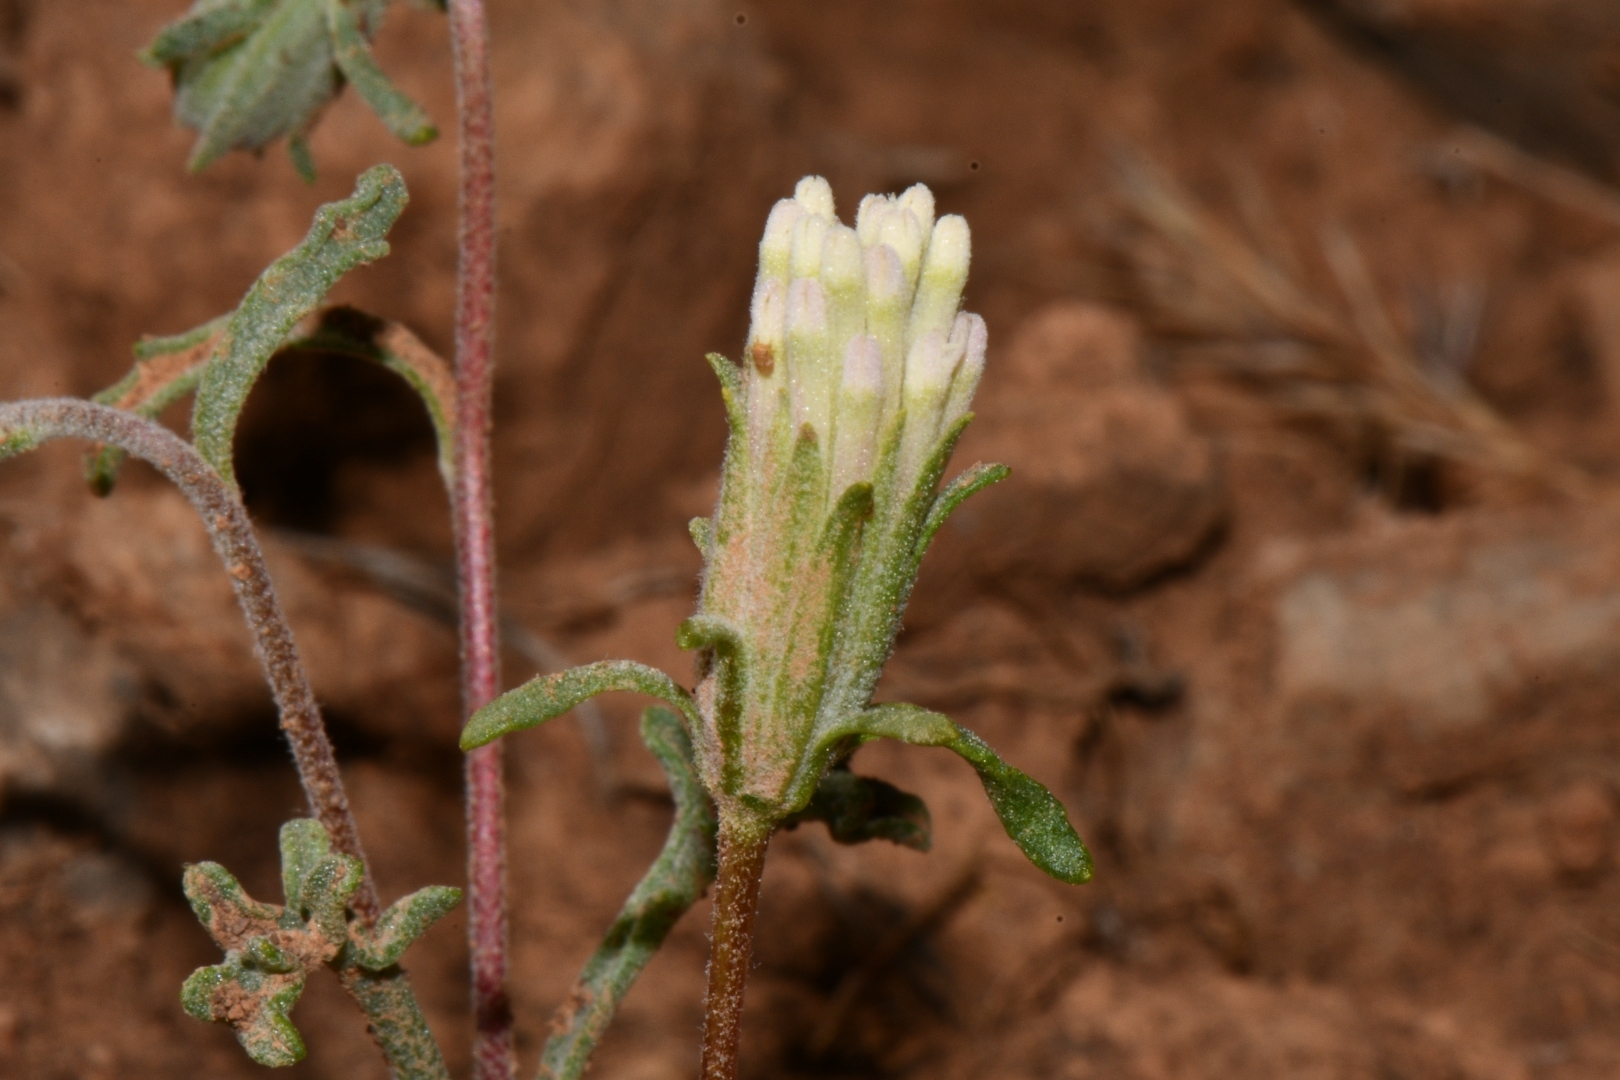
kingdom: Plantae
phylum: Tracheophyta
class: Magnoliopsida
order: Asterales
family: Asteraceae
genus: Chaenactis
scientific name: Chaenactis macrantha
